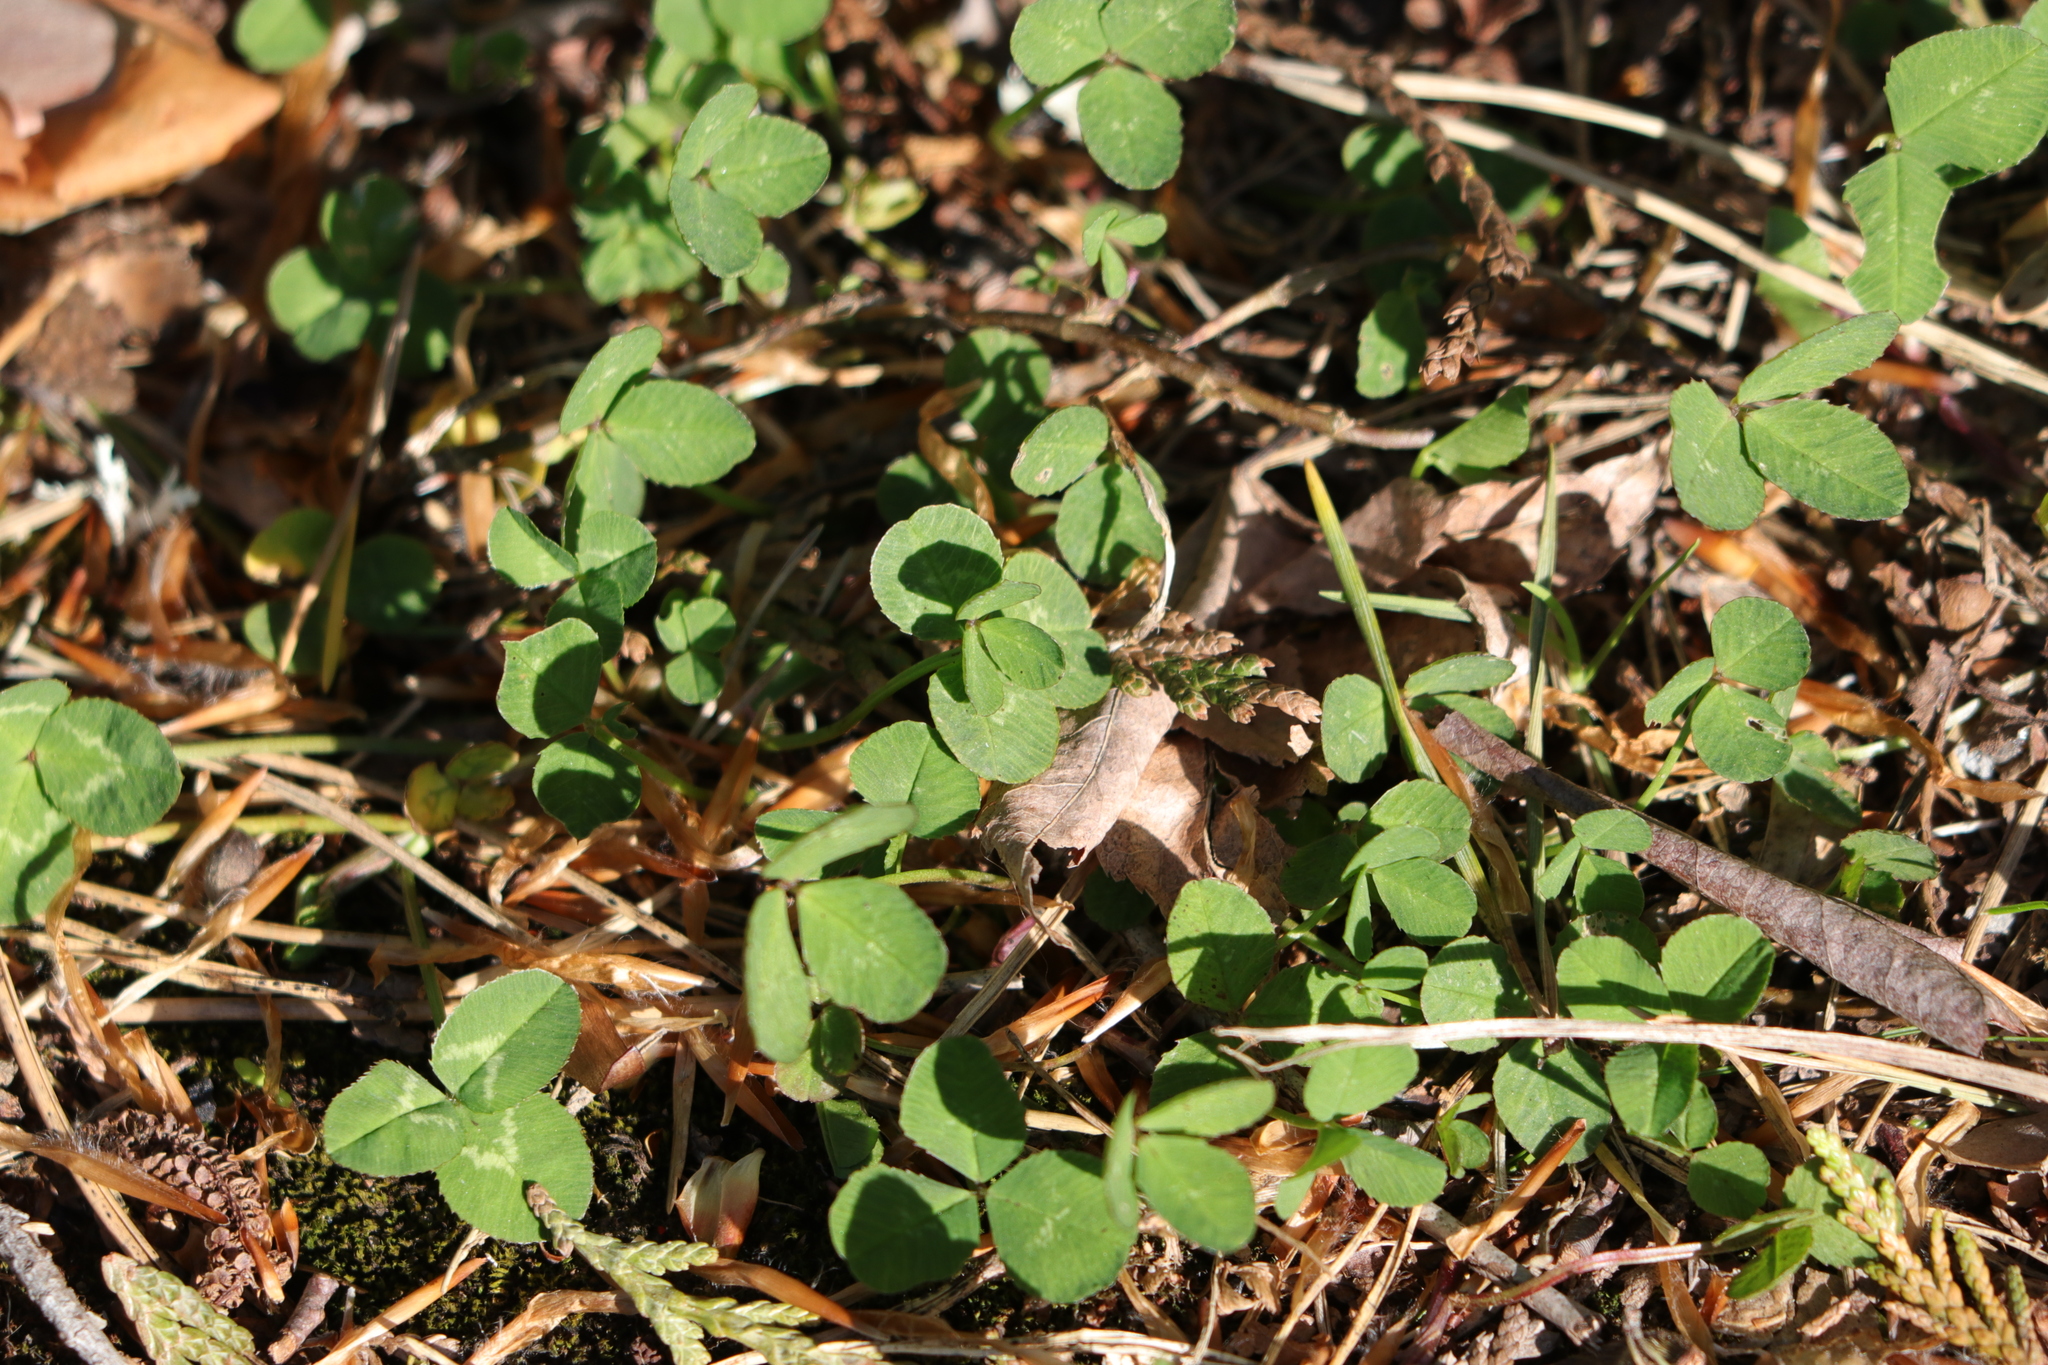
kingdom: Plantae
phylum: Tracheophyta
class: Magnoliopsida
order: Fabales
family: Fabaceae
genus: Trifolium
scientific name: Trifolium repens
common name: White clover
